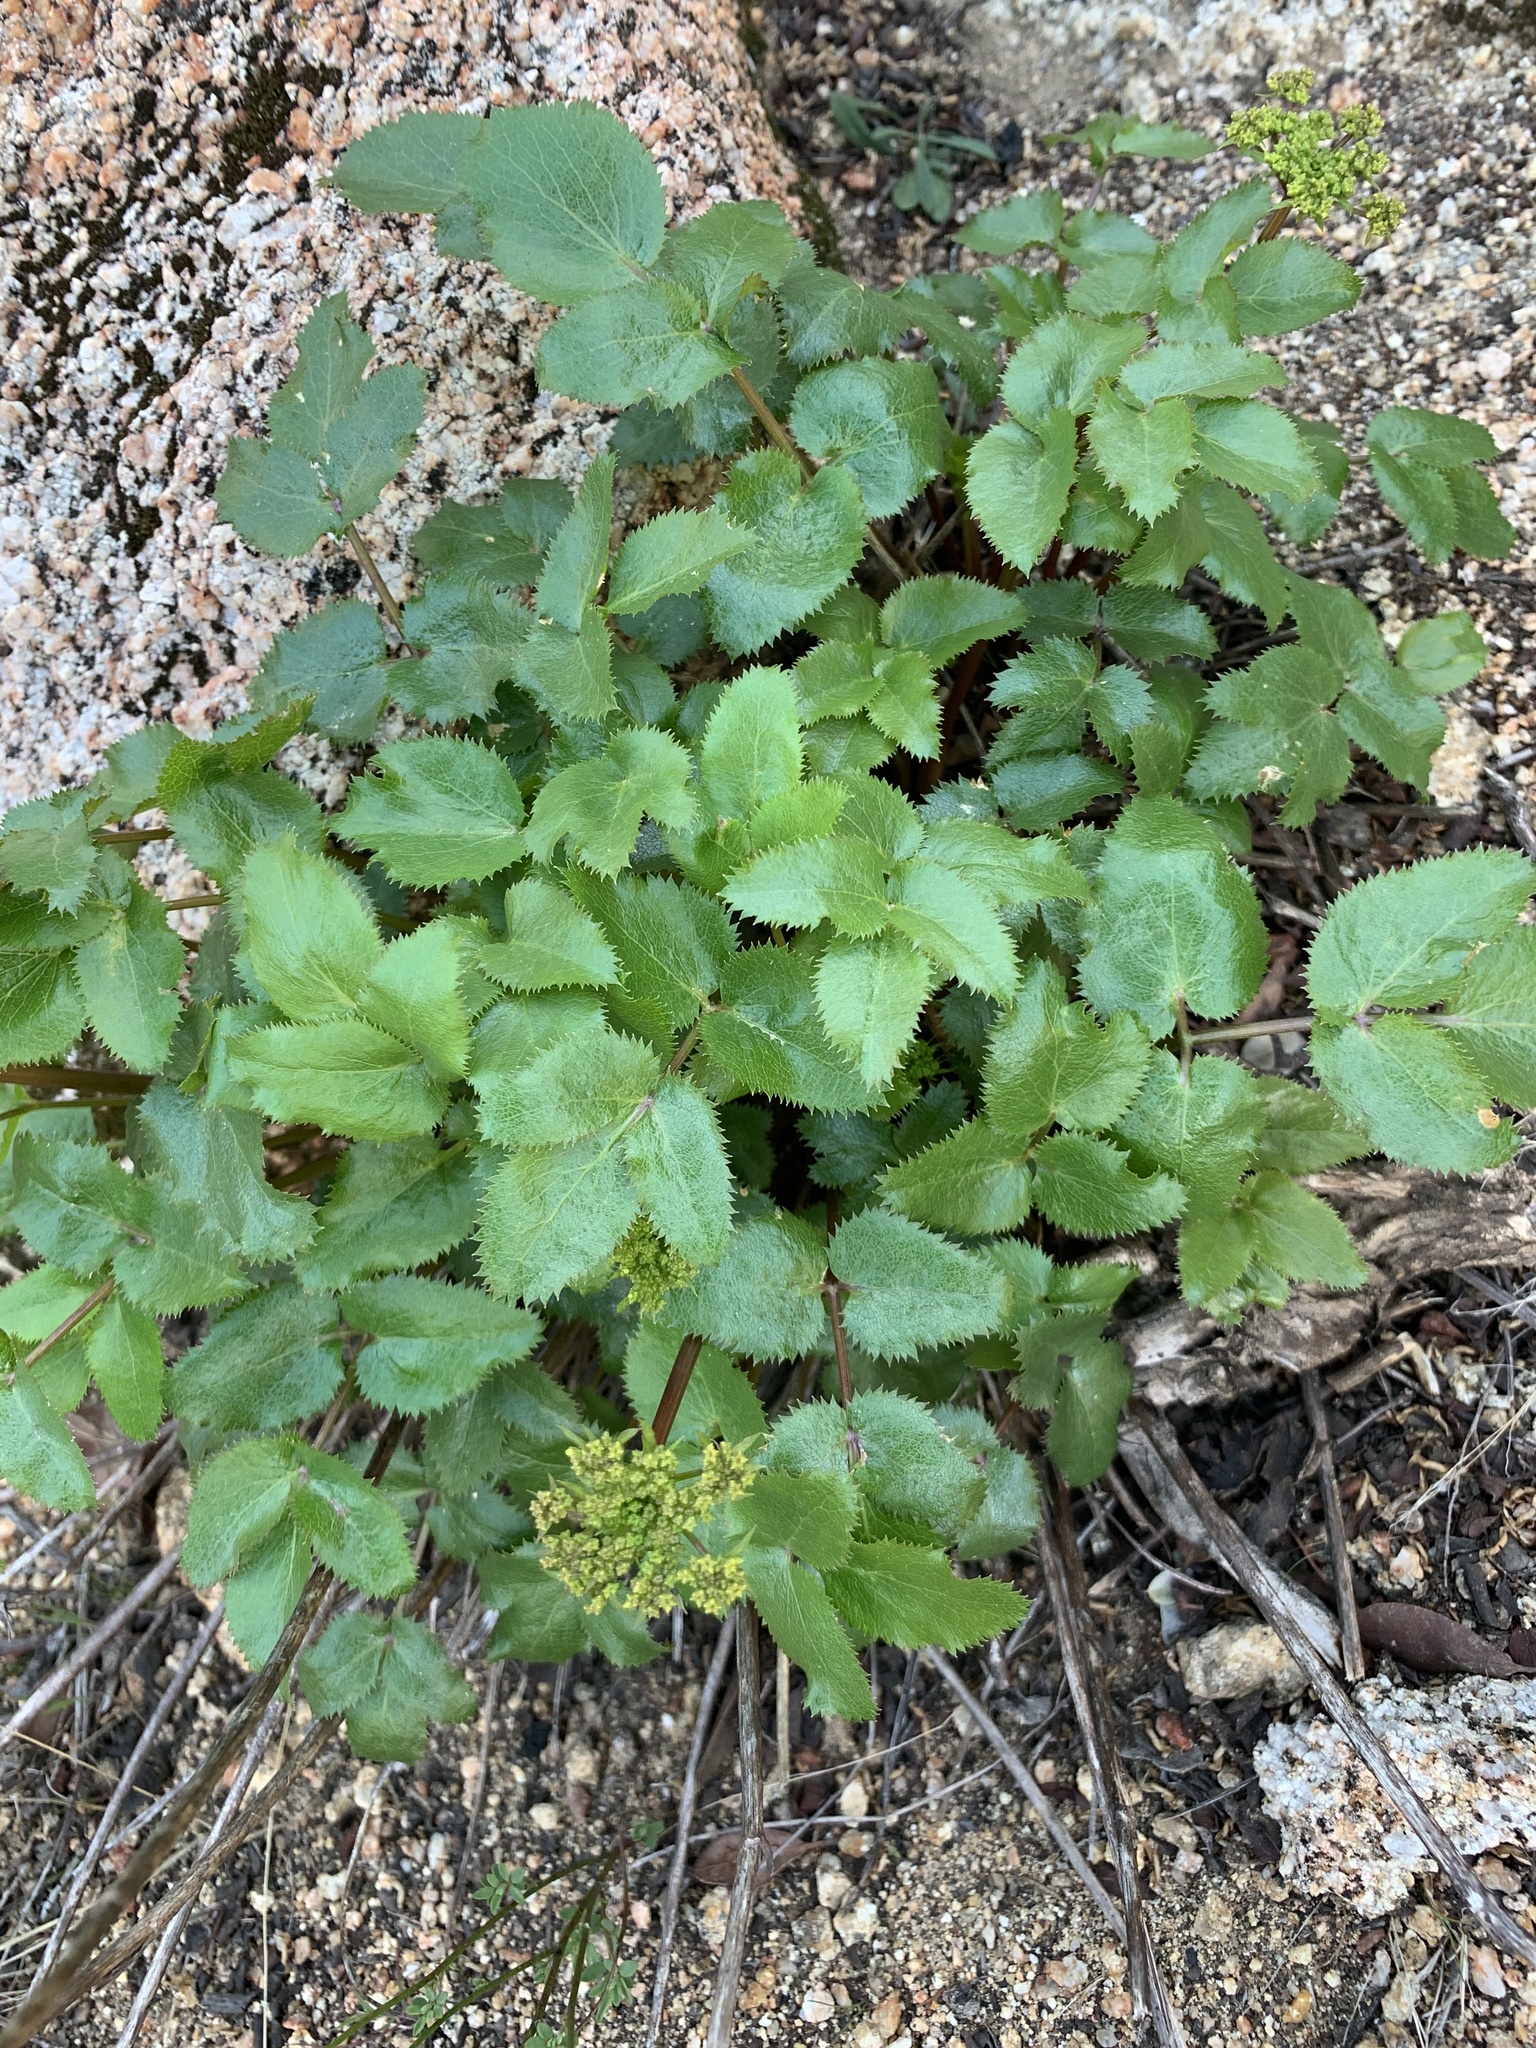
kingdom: Plantae
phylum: Tracheophyta
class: Magnoliopsida
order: Apiales
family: Apiaceae
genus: Tauschia
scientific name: Tauschia arguta
